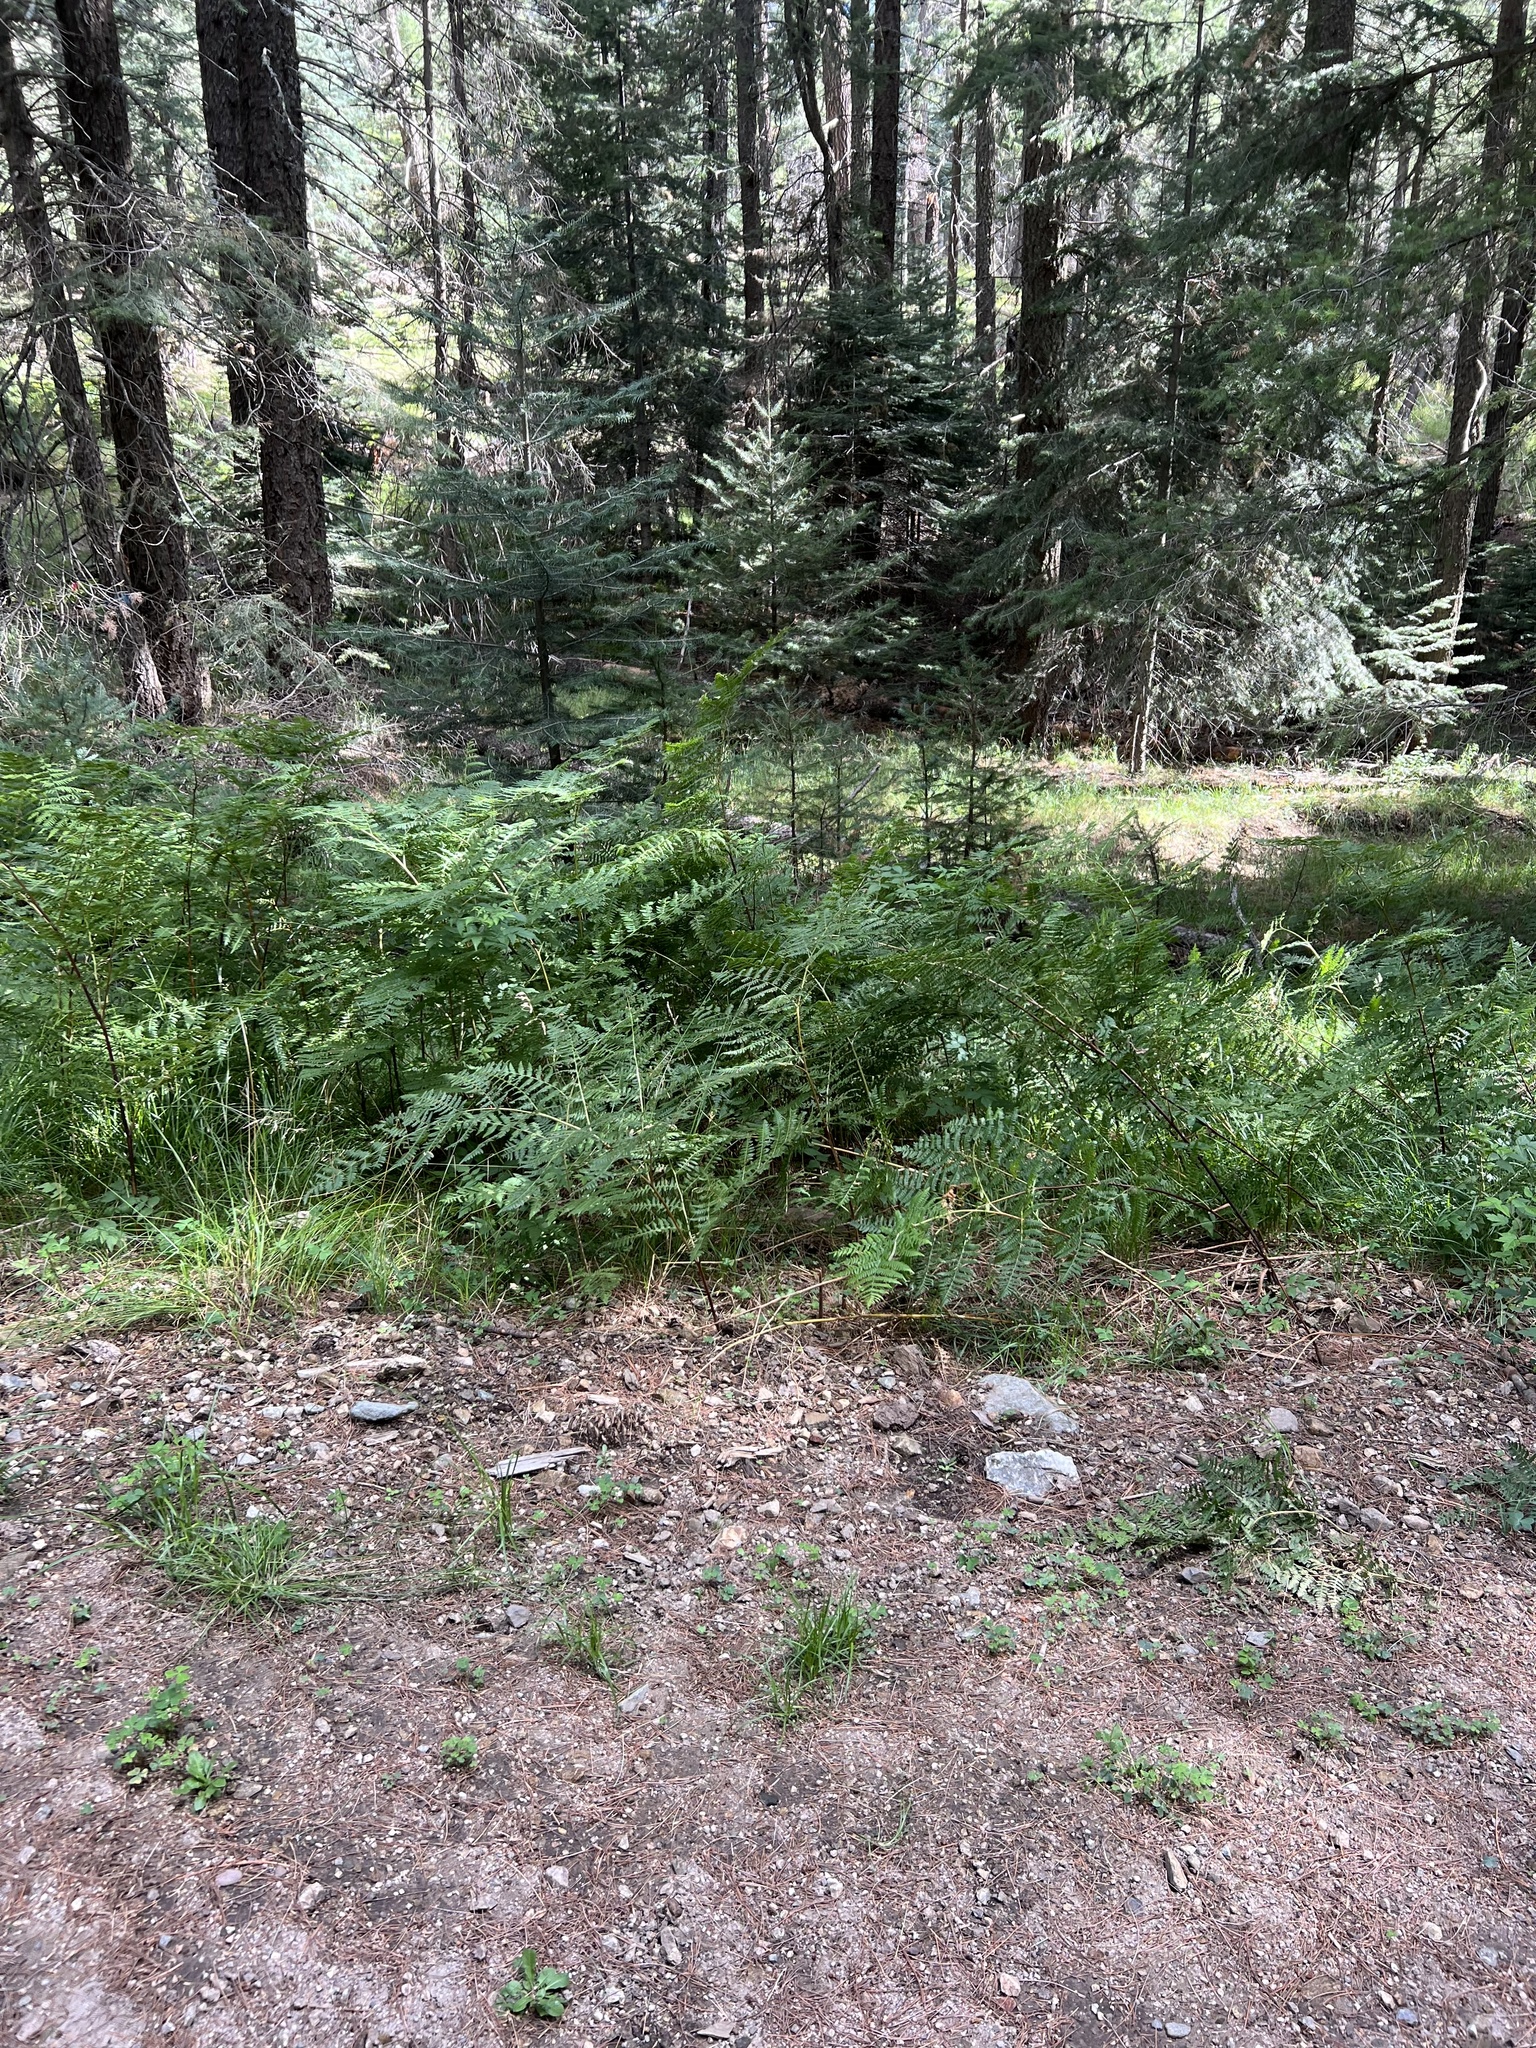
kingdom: Plantae
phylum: Tracheophyta
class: Polypodiopsida
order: Polypodiales
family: Dennstaedtiaceae
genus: Pteridium
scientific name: Pteridium aquilinum
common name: Bracken
